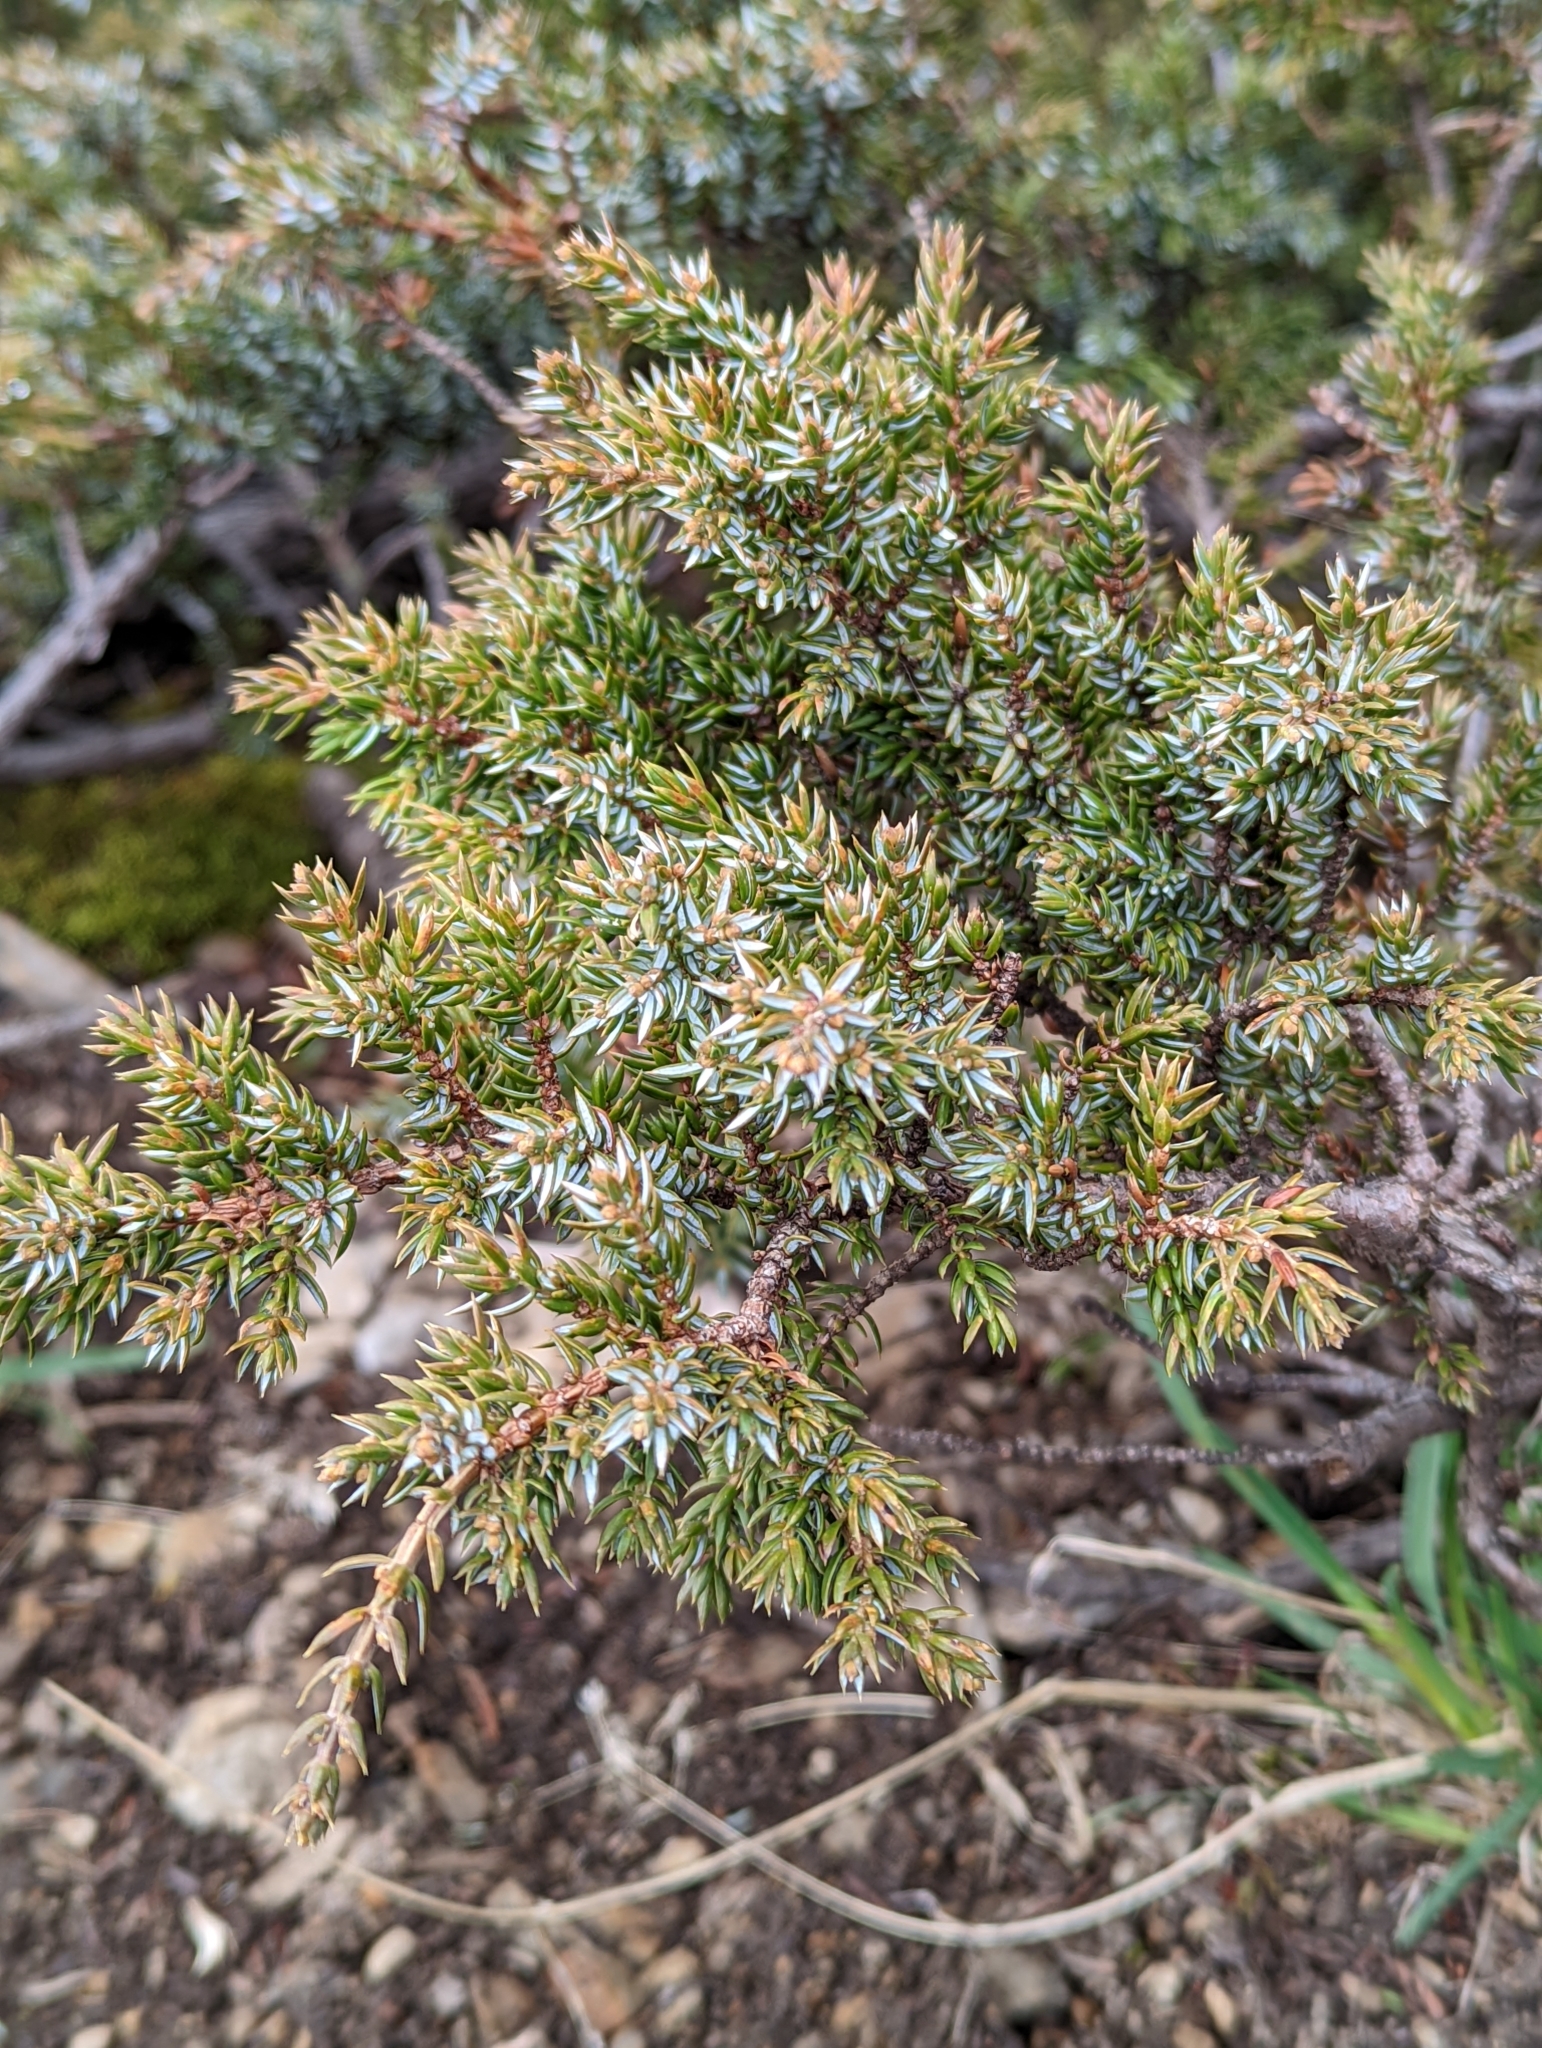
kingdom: Plantae
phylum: Tracheophyta
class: Pinopsida
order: Pinales
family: Cupressaceae
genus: Juniperus
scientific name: Juniperus communis
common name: Common juniper
